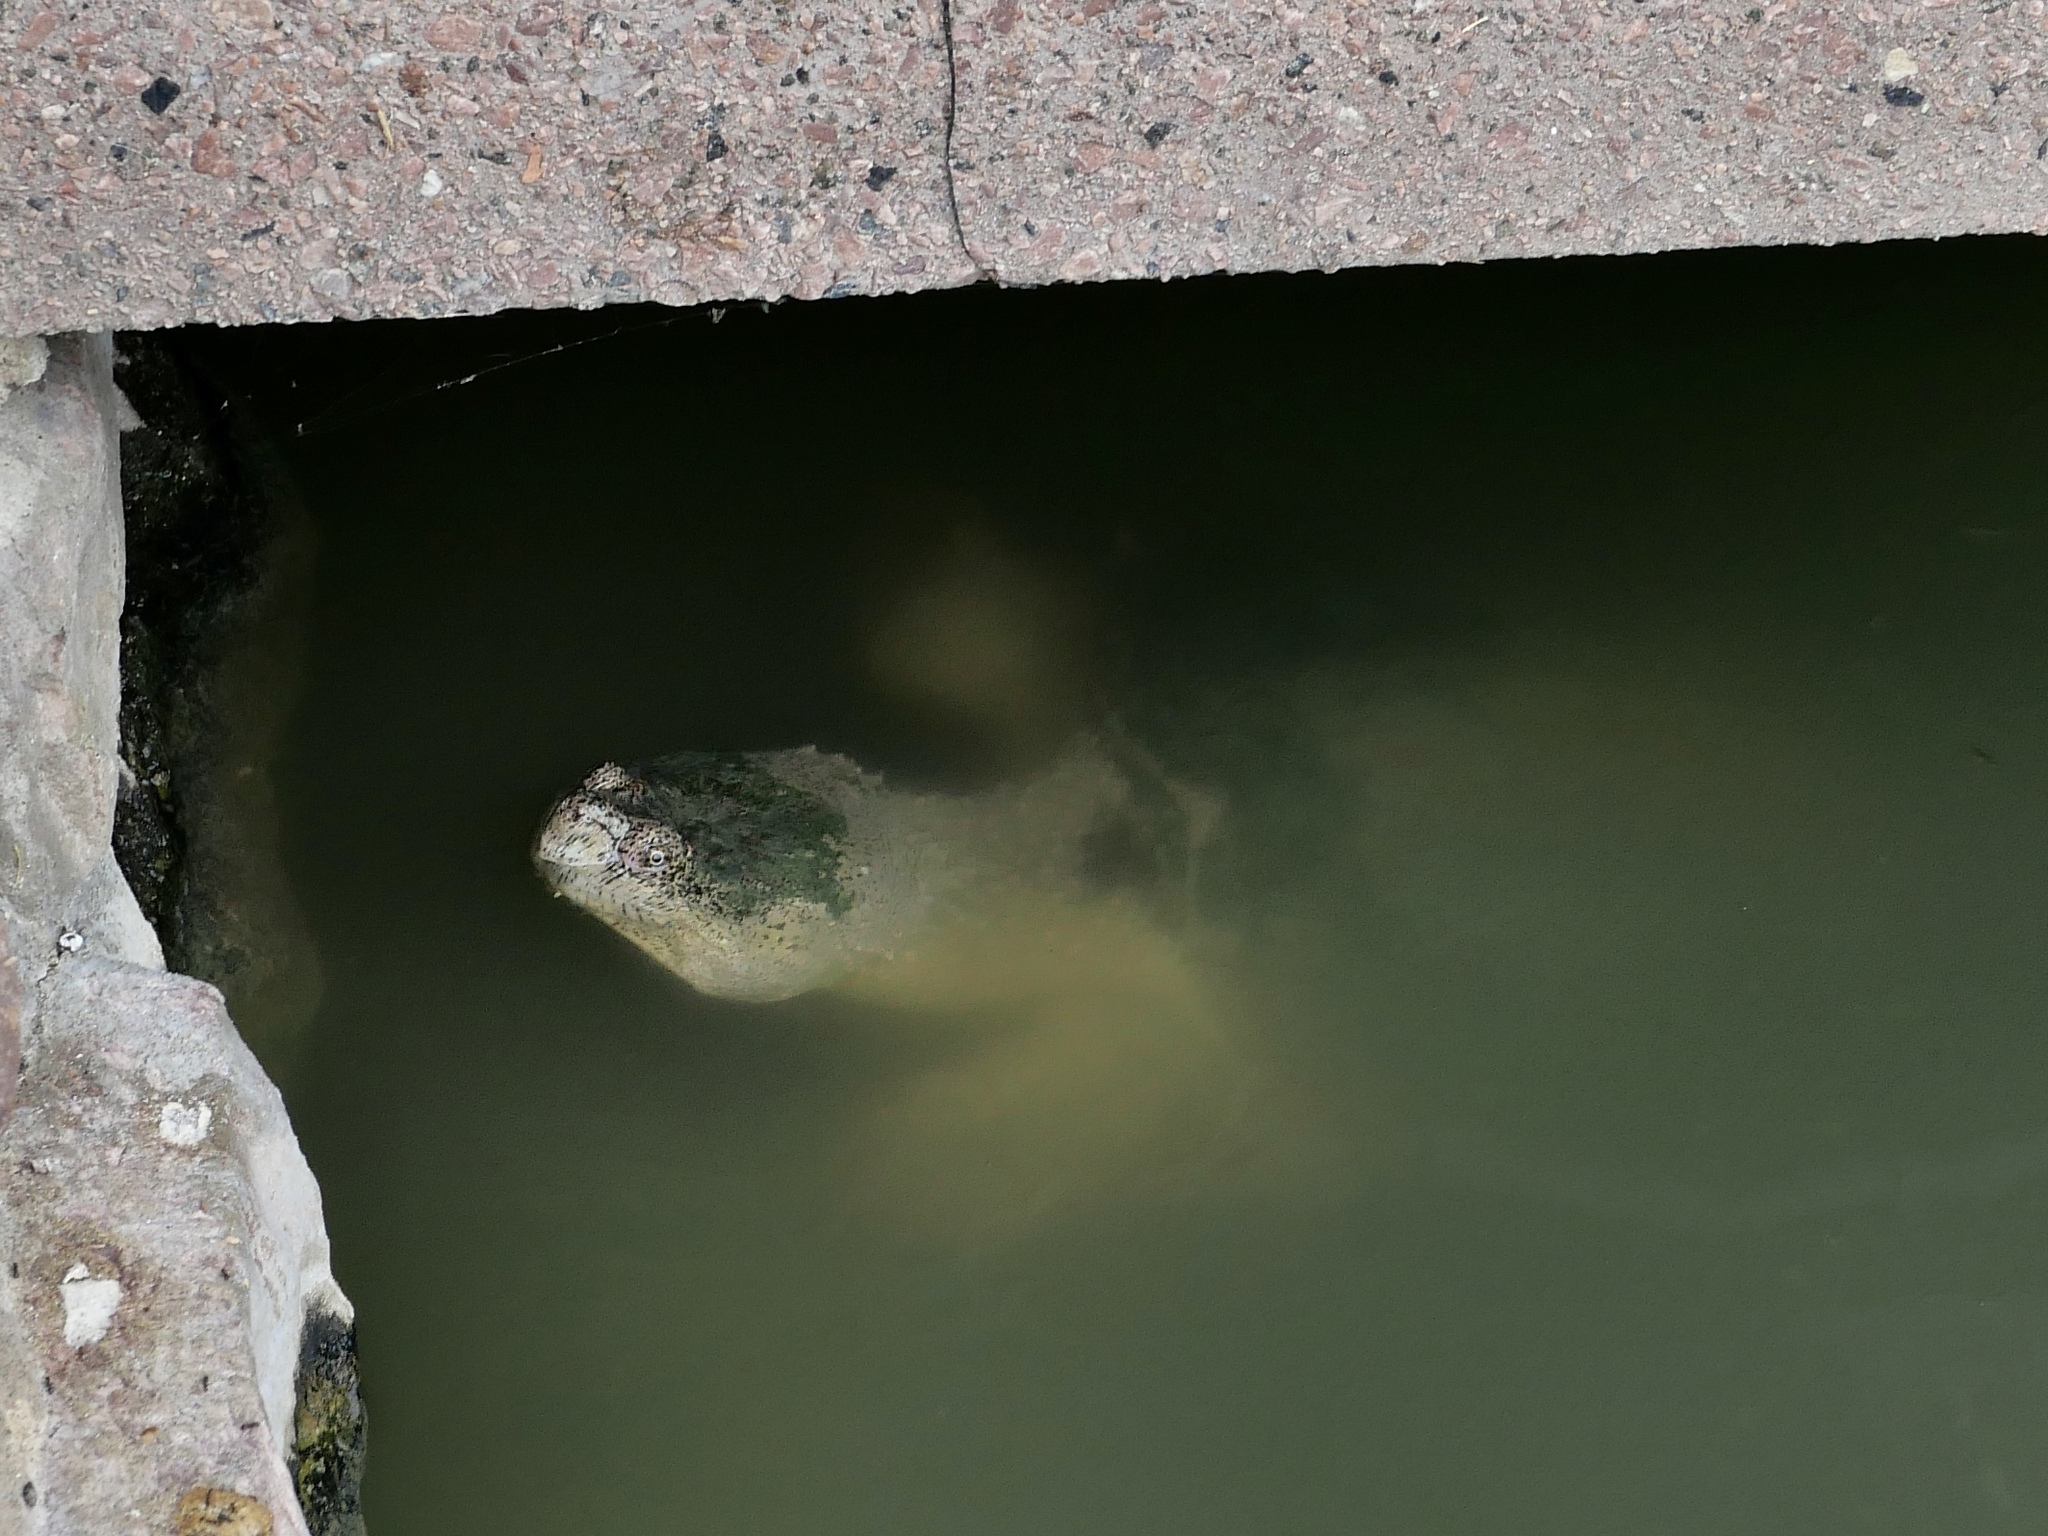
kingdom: Animalia
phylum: Chordata
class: Testudines
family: Chelydridae
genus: Chelydra
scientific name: Chelydra serpentina
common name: Common snapping turtle
